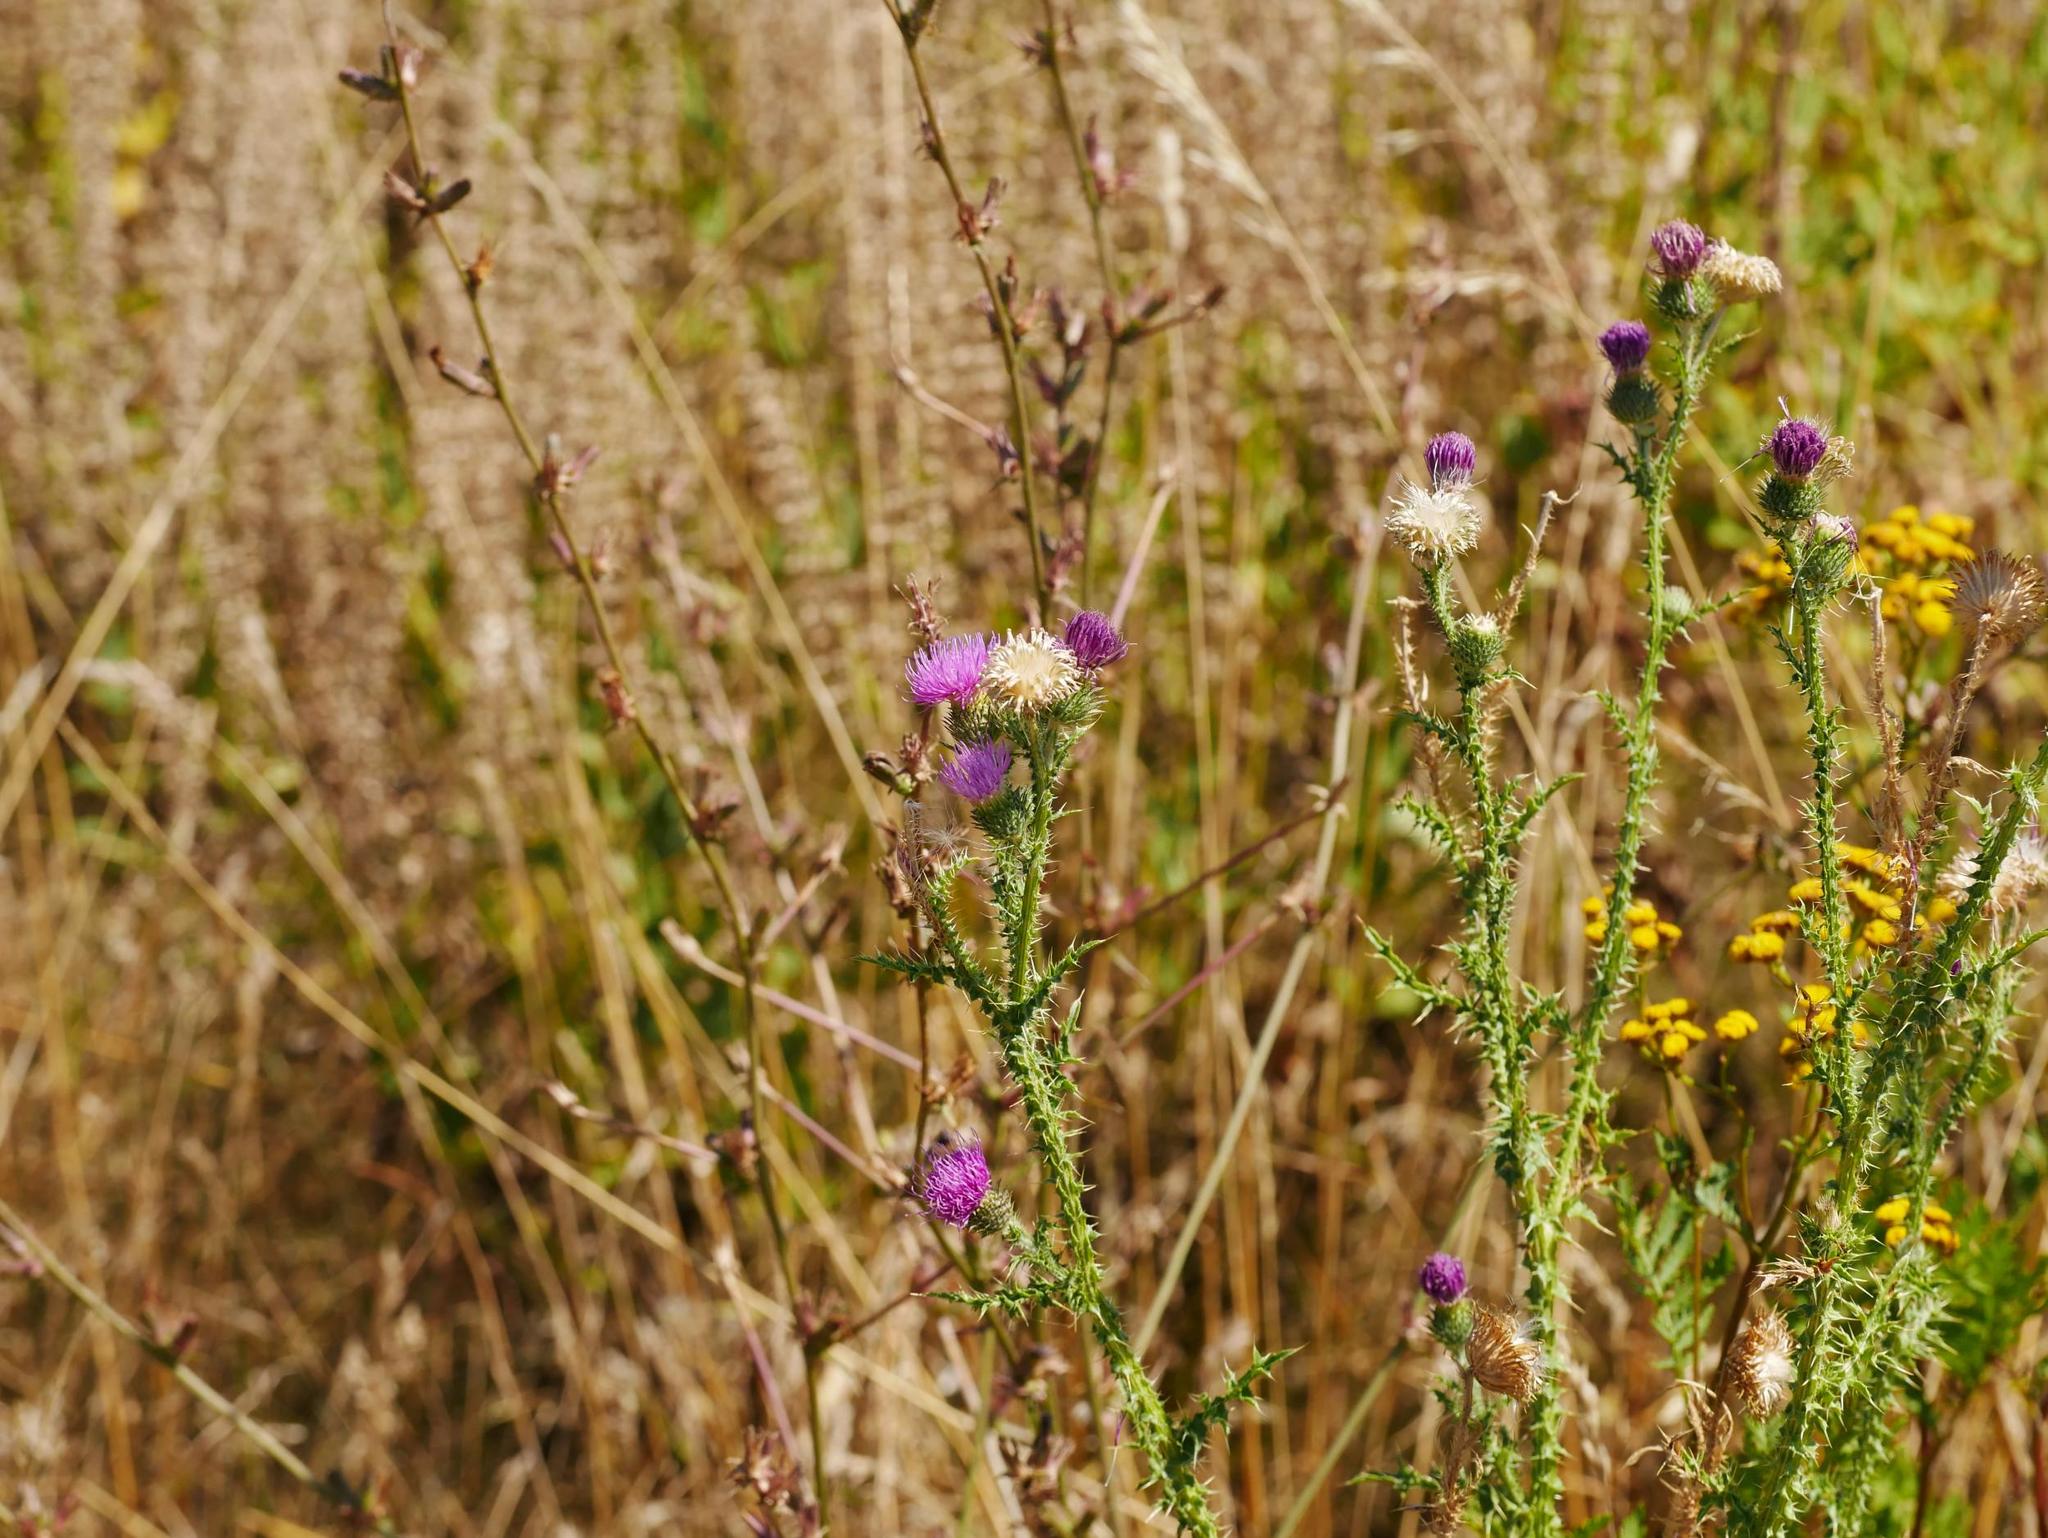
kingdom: Plantae
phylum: Tracheophyta
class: Magnoliopsida
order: Asterales
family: Asteraceae
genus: Carduus
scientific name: Carduus acanthoides
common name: Plumeless thistle
